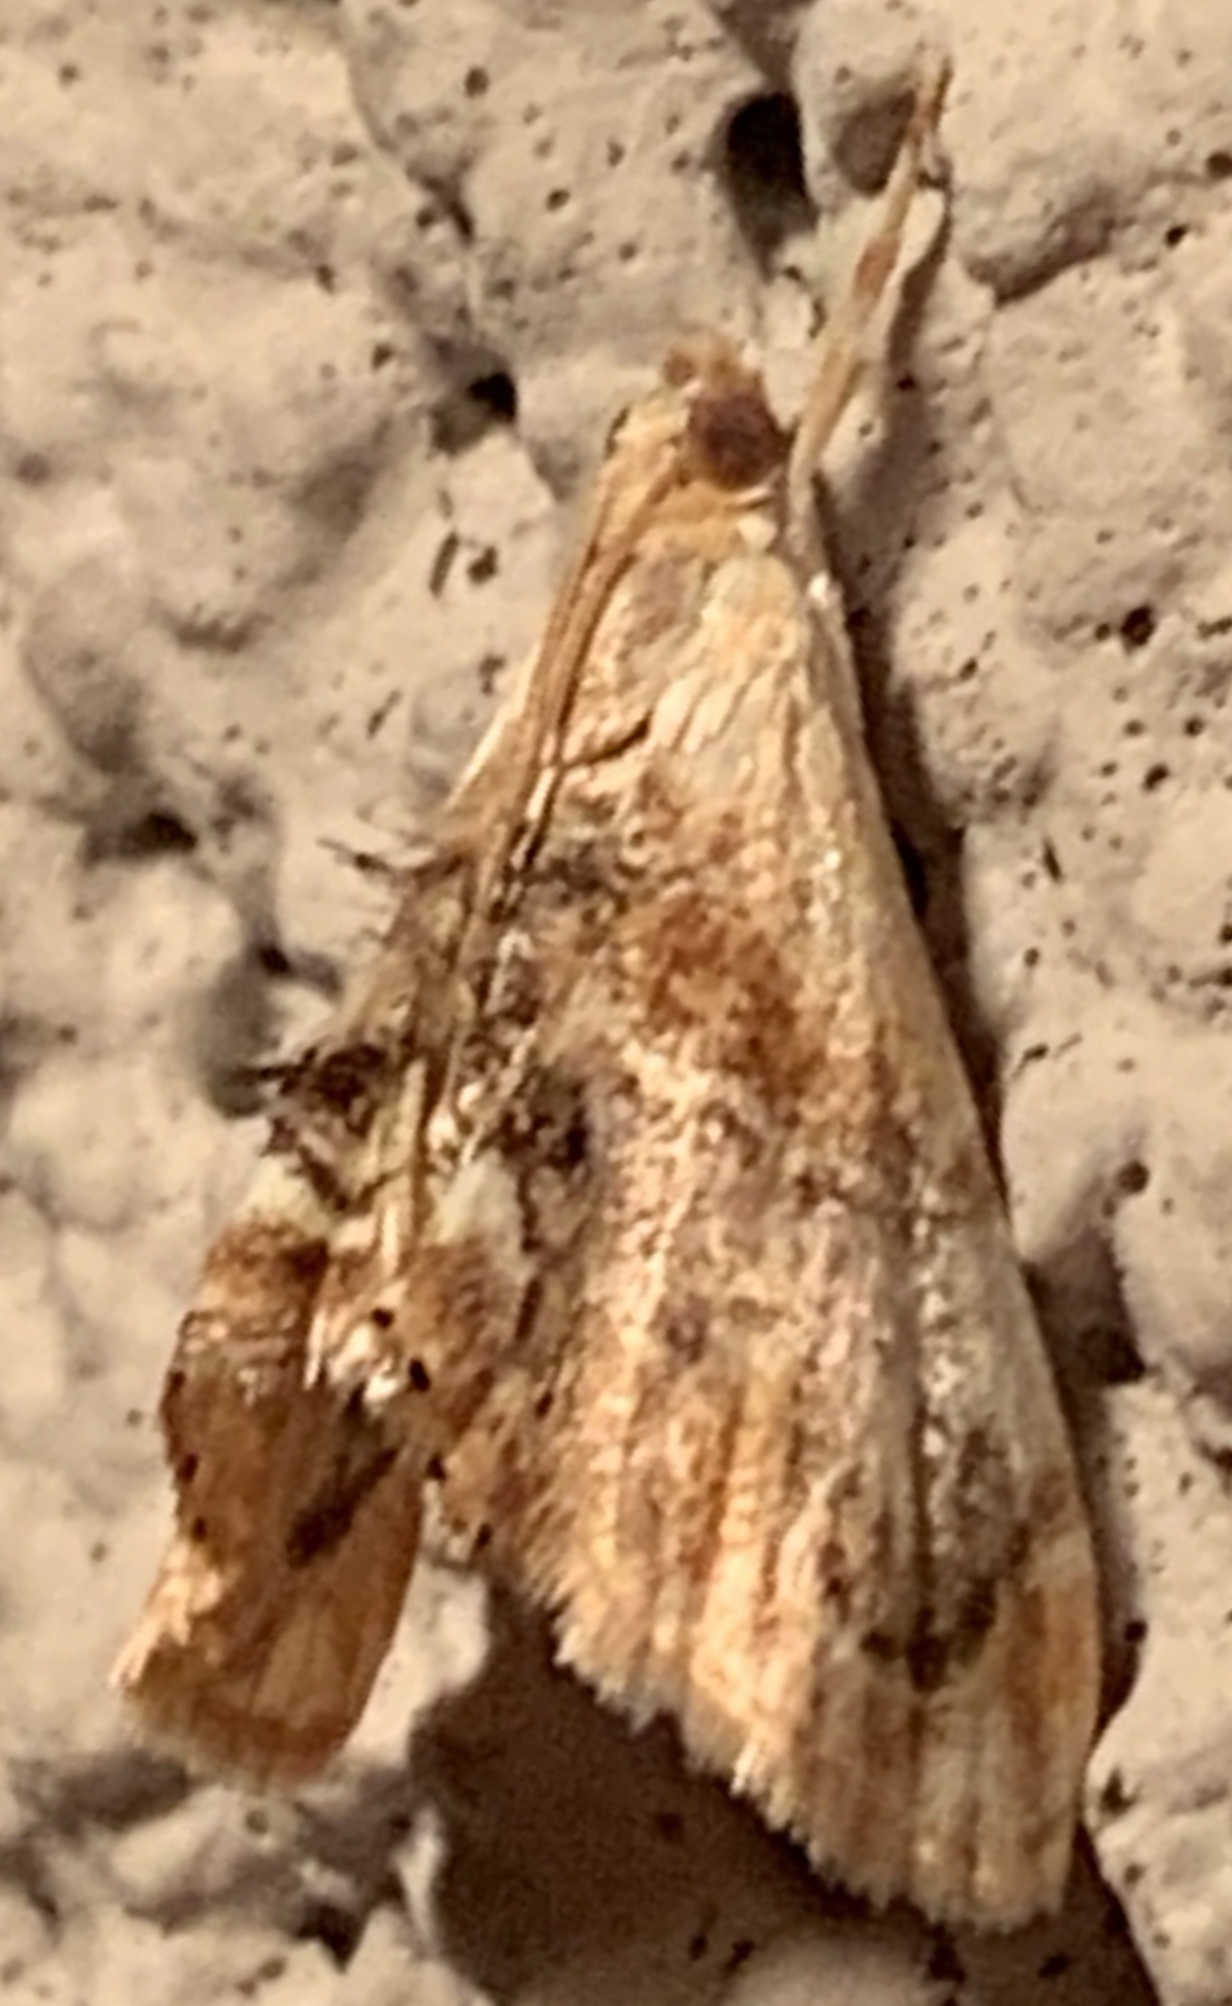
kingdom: Animalia
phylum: Arthropoda
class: Insecta
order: Lepidoptera
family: Crambidae
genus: Dicymolomia
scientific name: Dicymolomia julianalis
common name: Julia's dicymolomia moth
